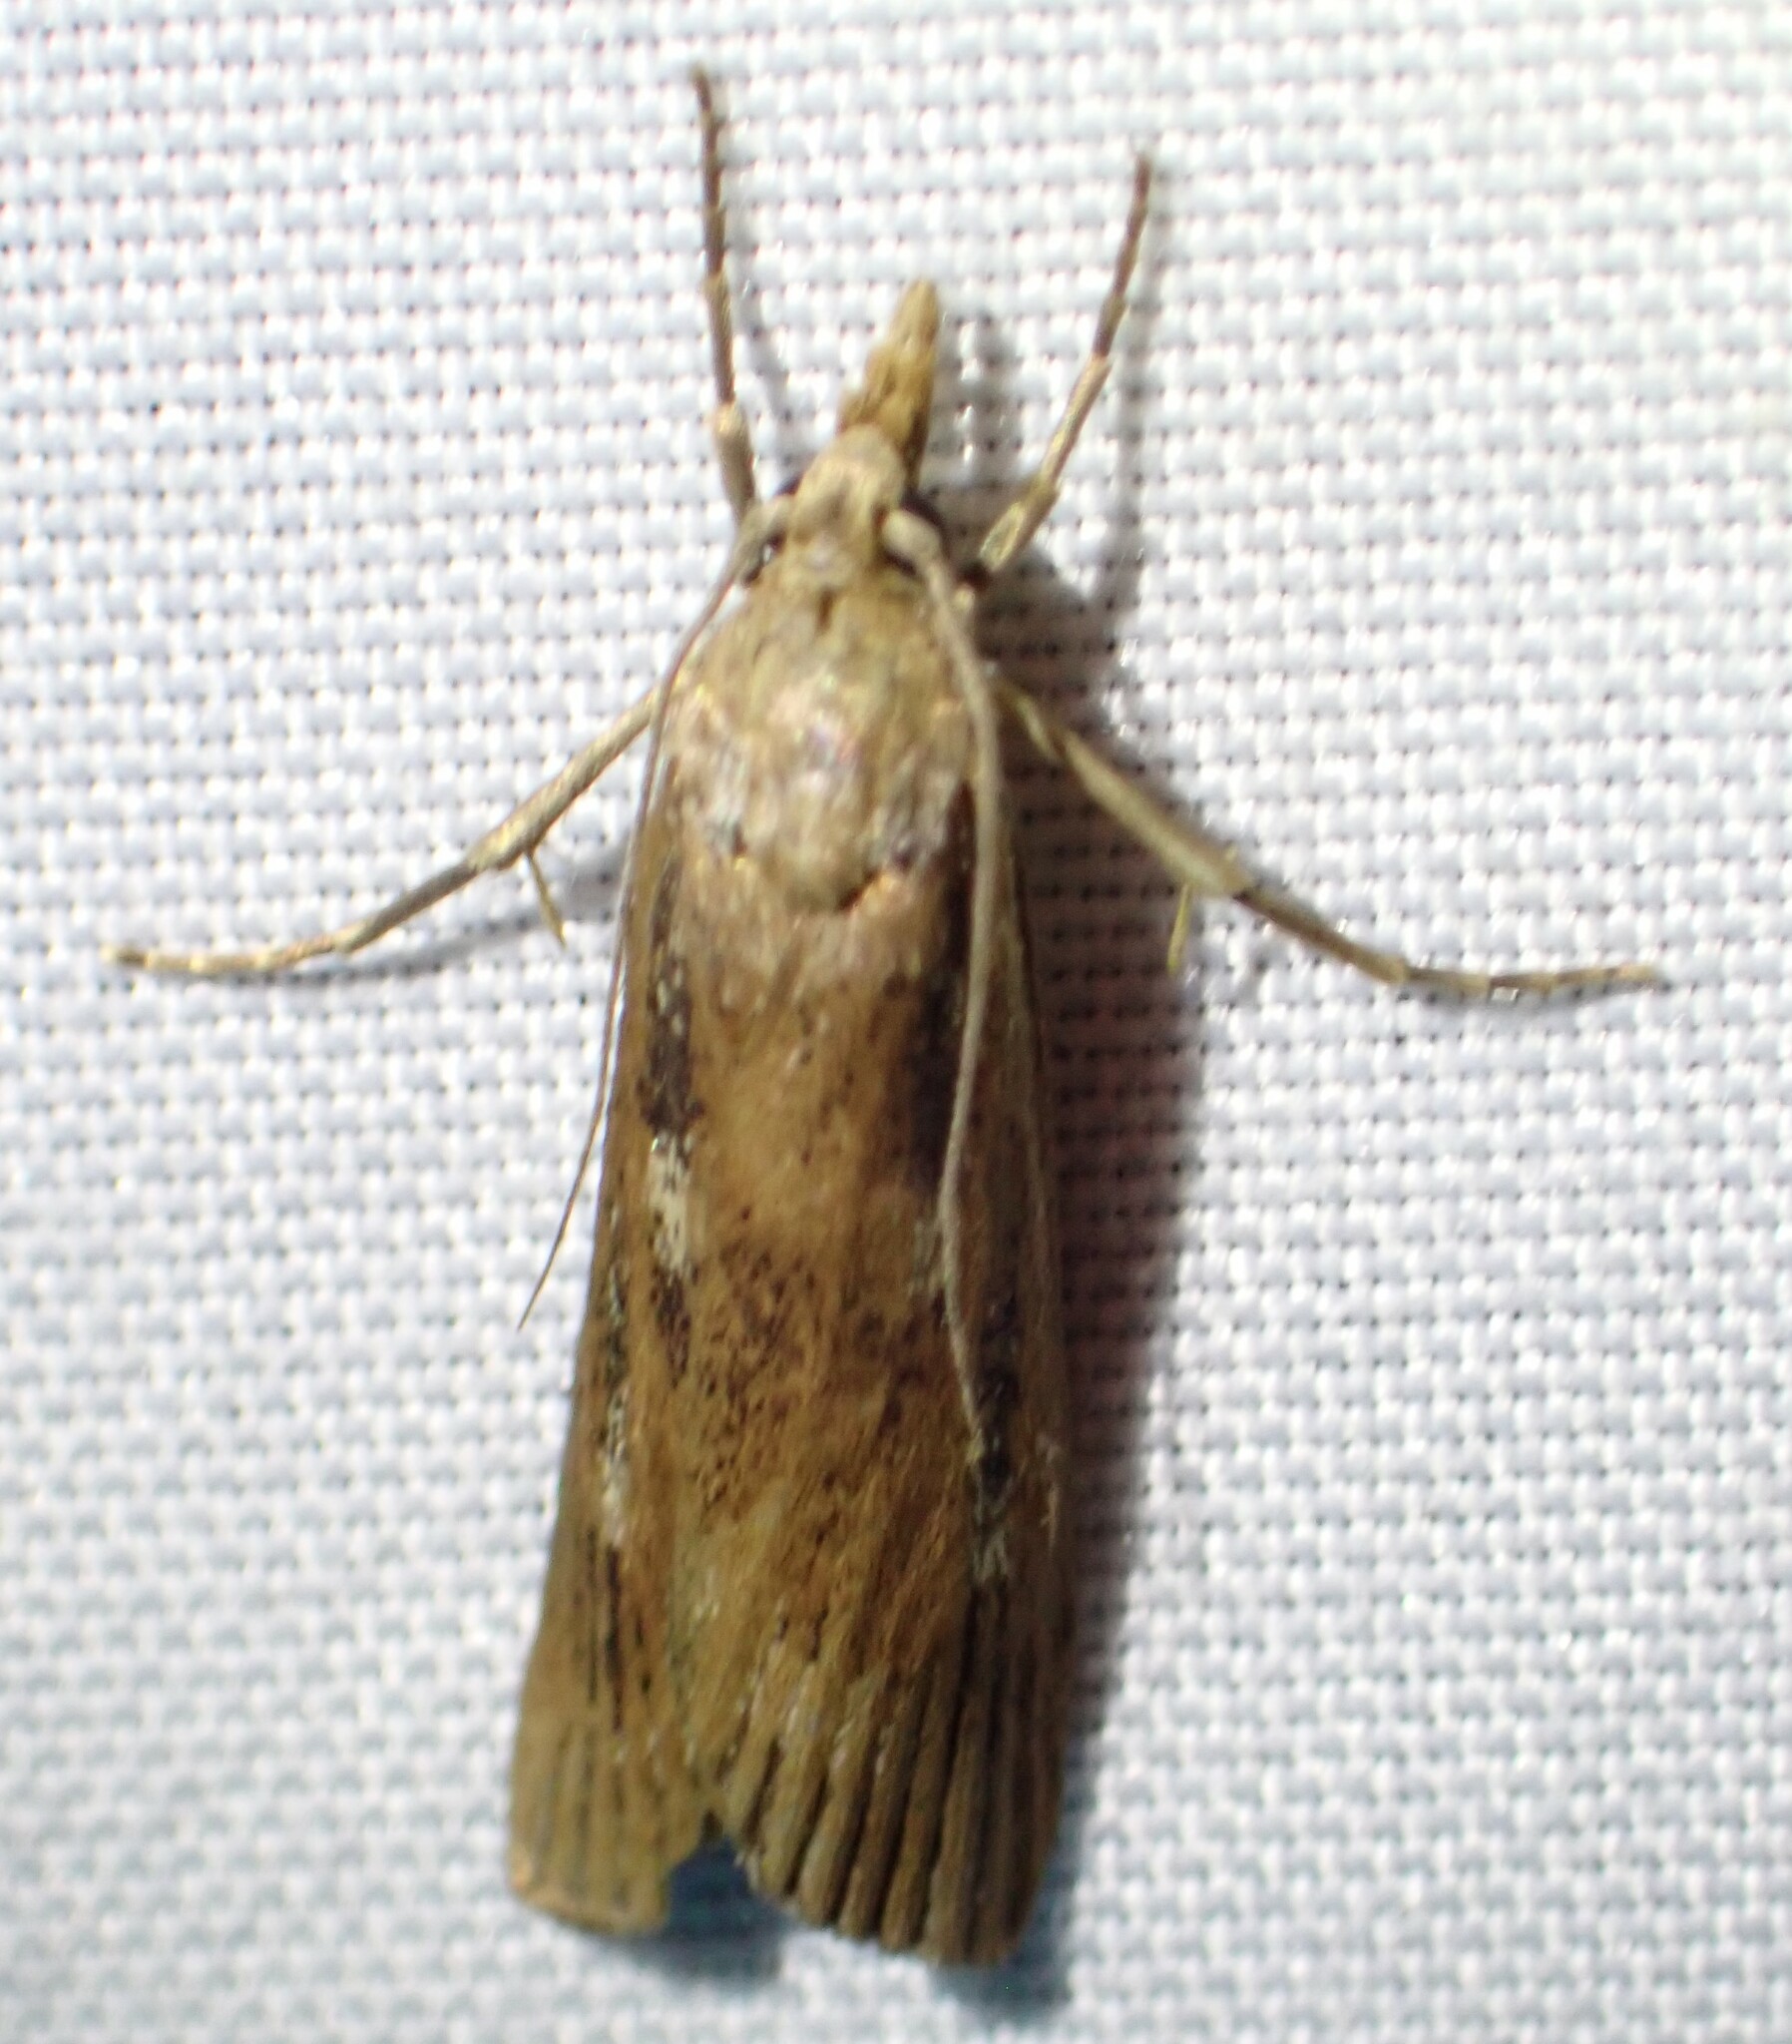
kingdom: Animalia
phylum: Arthropoda
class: Insecta
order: Lepidoptera
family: Crambidae
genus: Occidentalia
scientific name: Occidentalia comptulatalis
